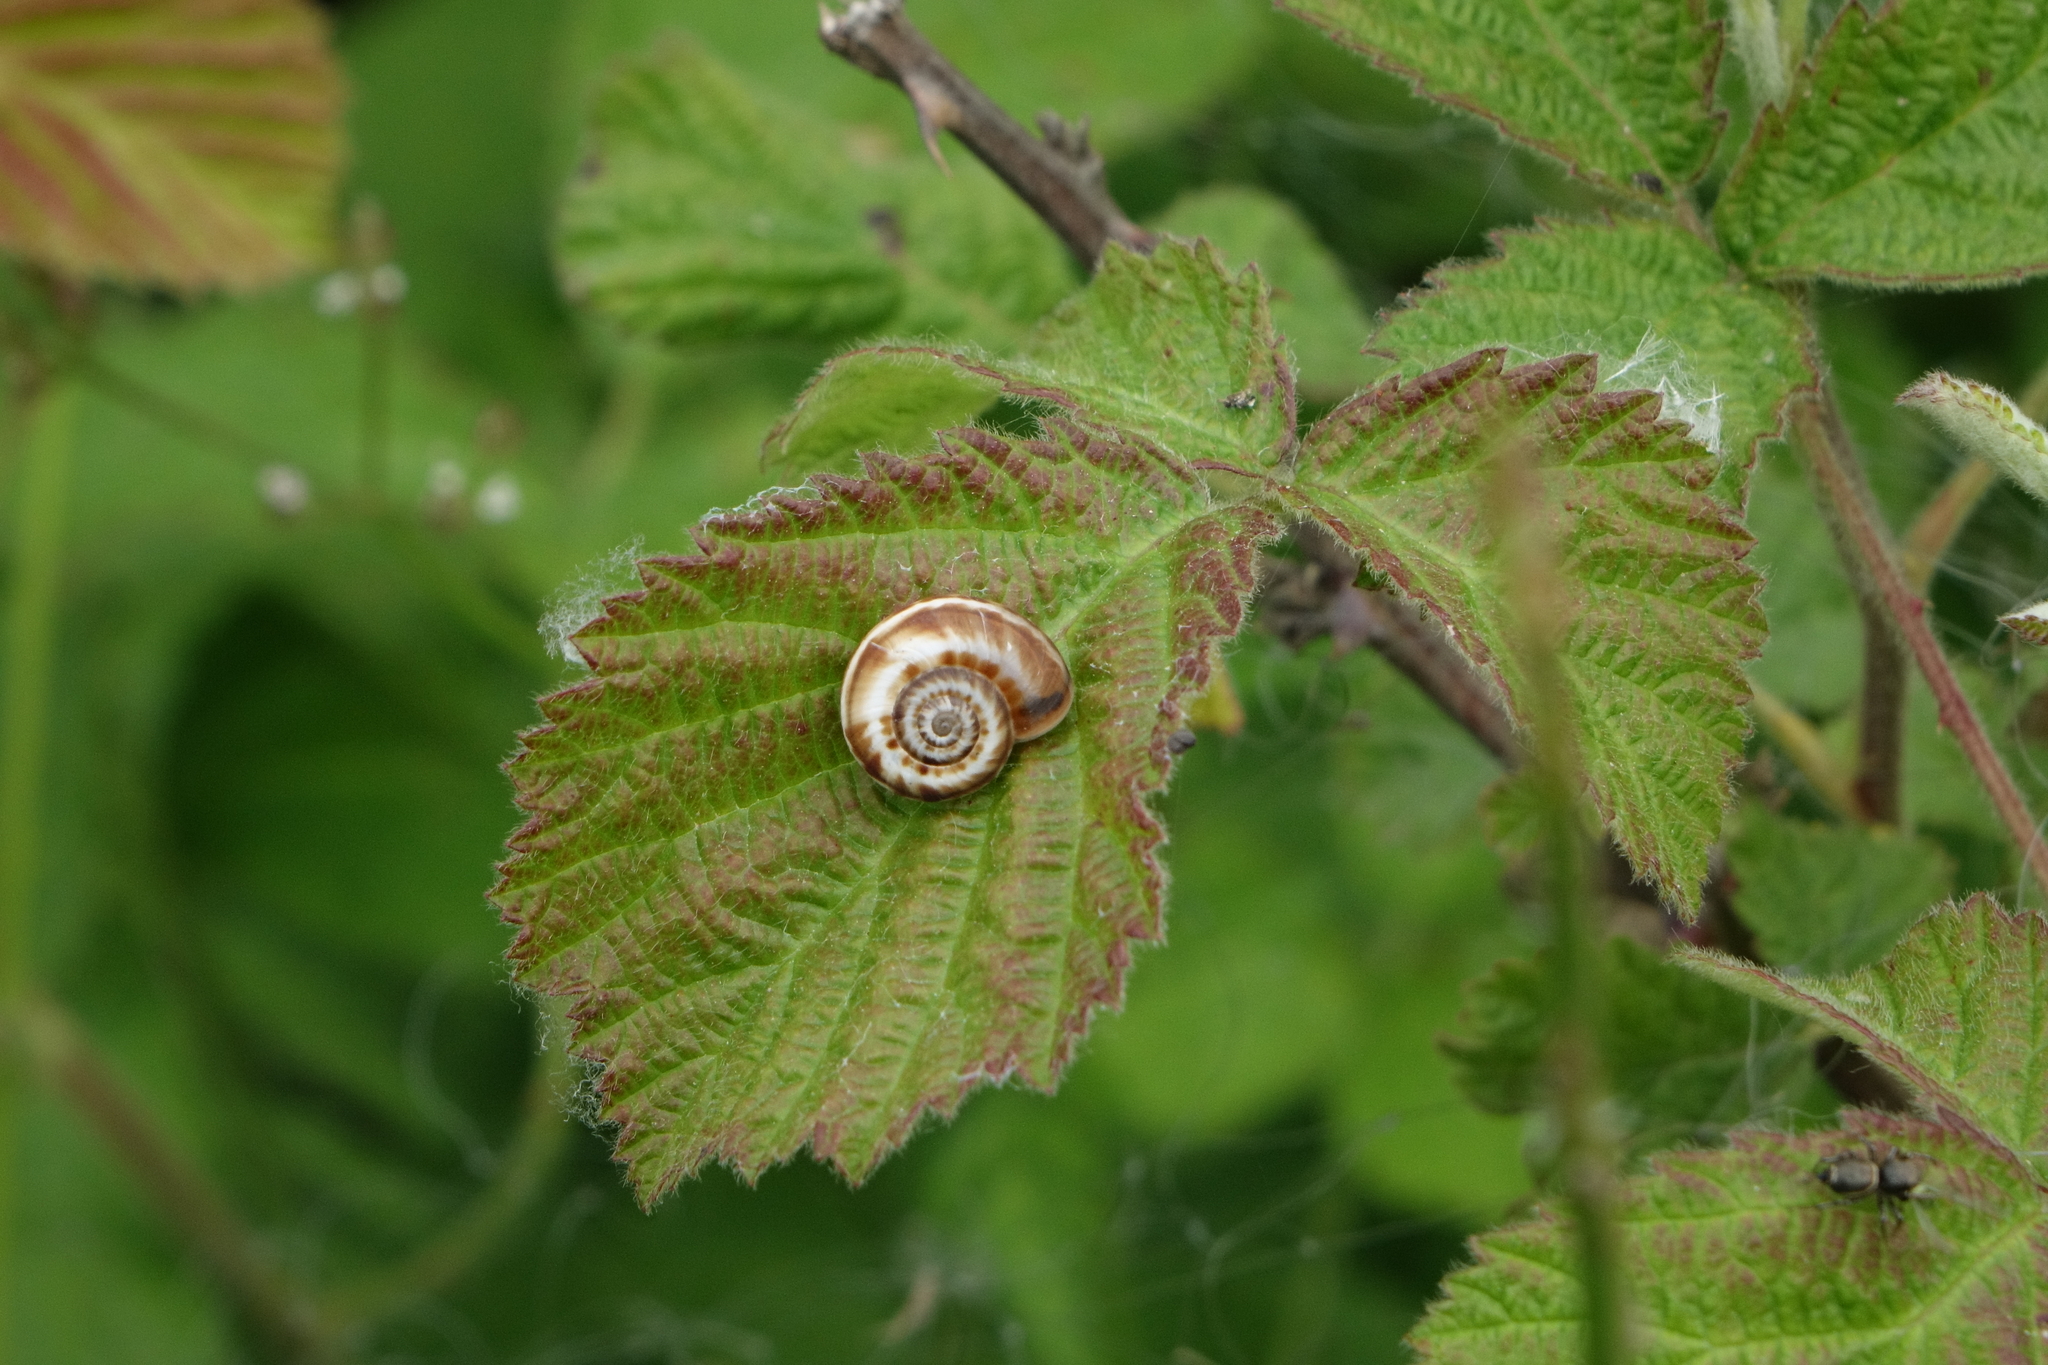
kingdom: Animalia
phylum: Mollusca
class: Gastropoda
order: Stylommatophora
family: Geomitridae
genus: Xeropicta
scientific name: Xeropicta derbentina
